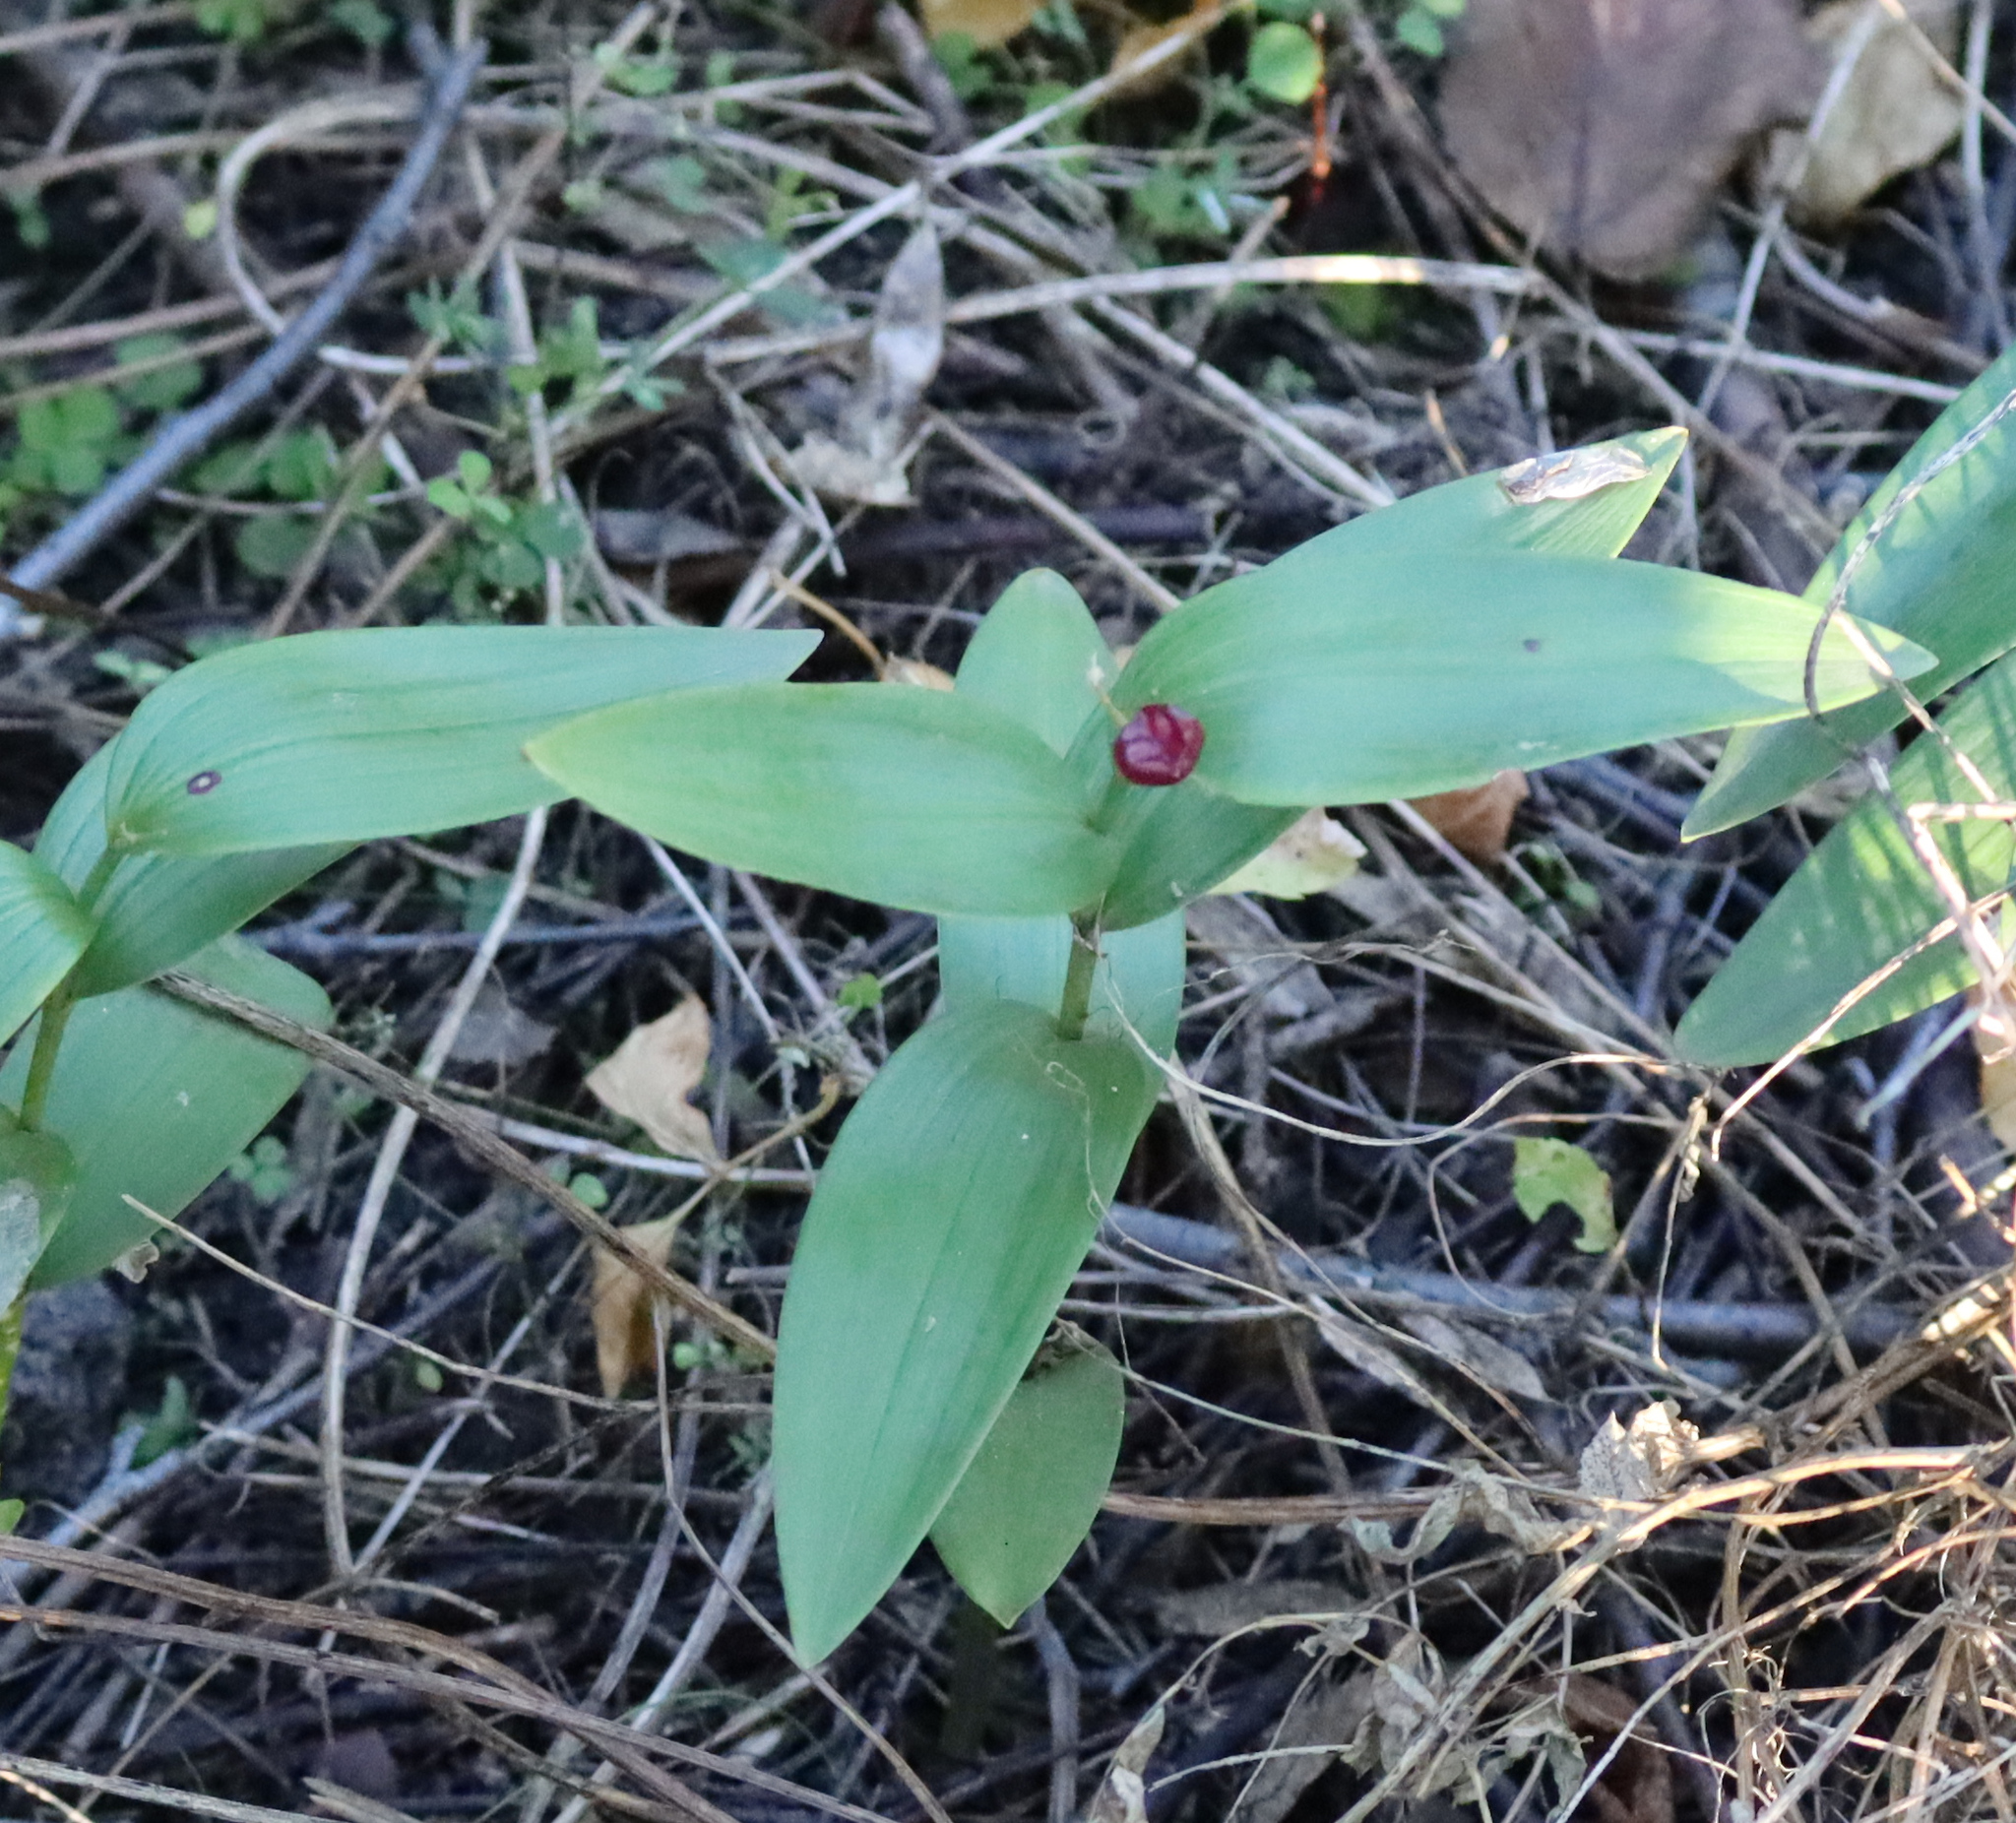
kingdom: Plantae
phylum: Tracheophyta
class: Liliopsida
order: Asparagales
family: Asparagaceae
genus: Maianthemum
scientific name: Maianthemum stellatum
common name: Little false solomon's seal
